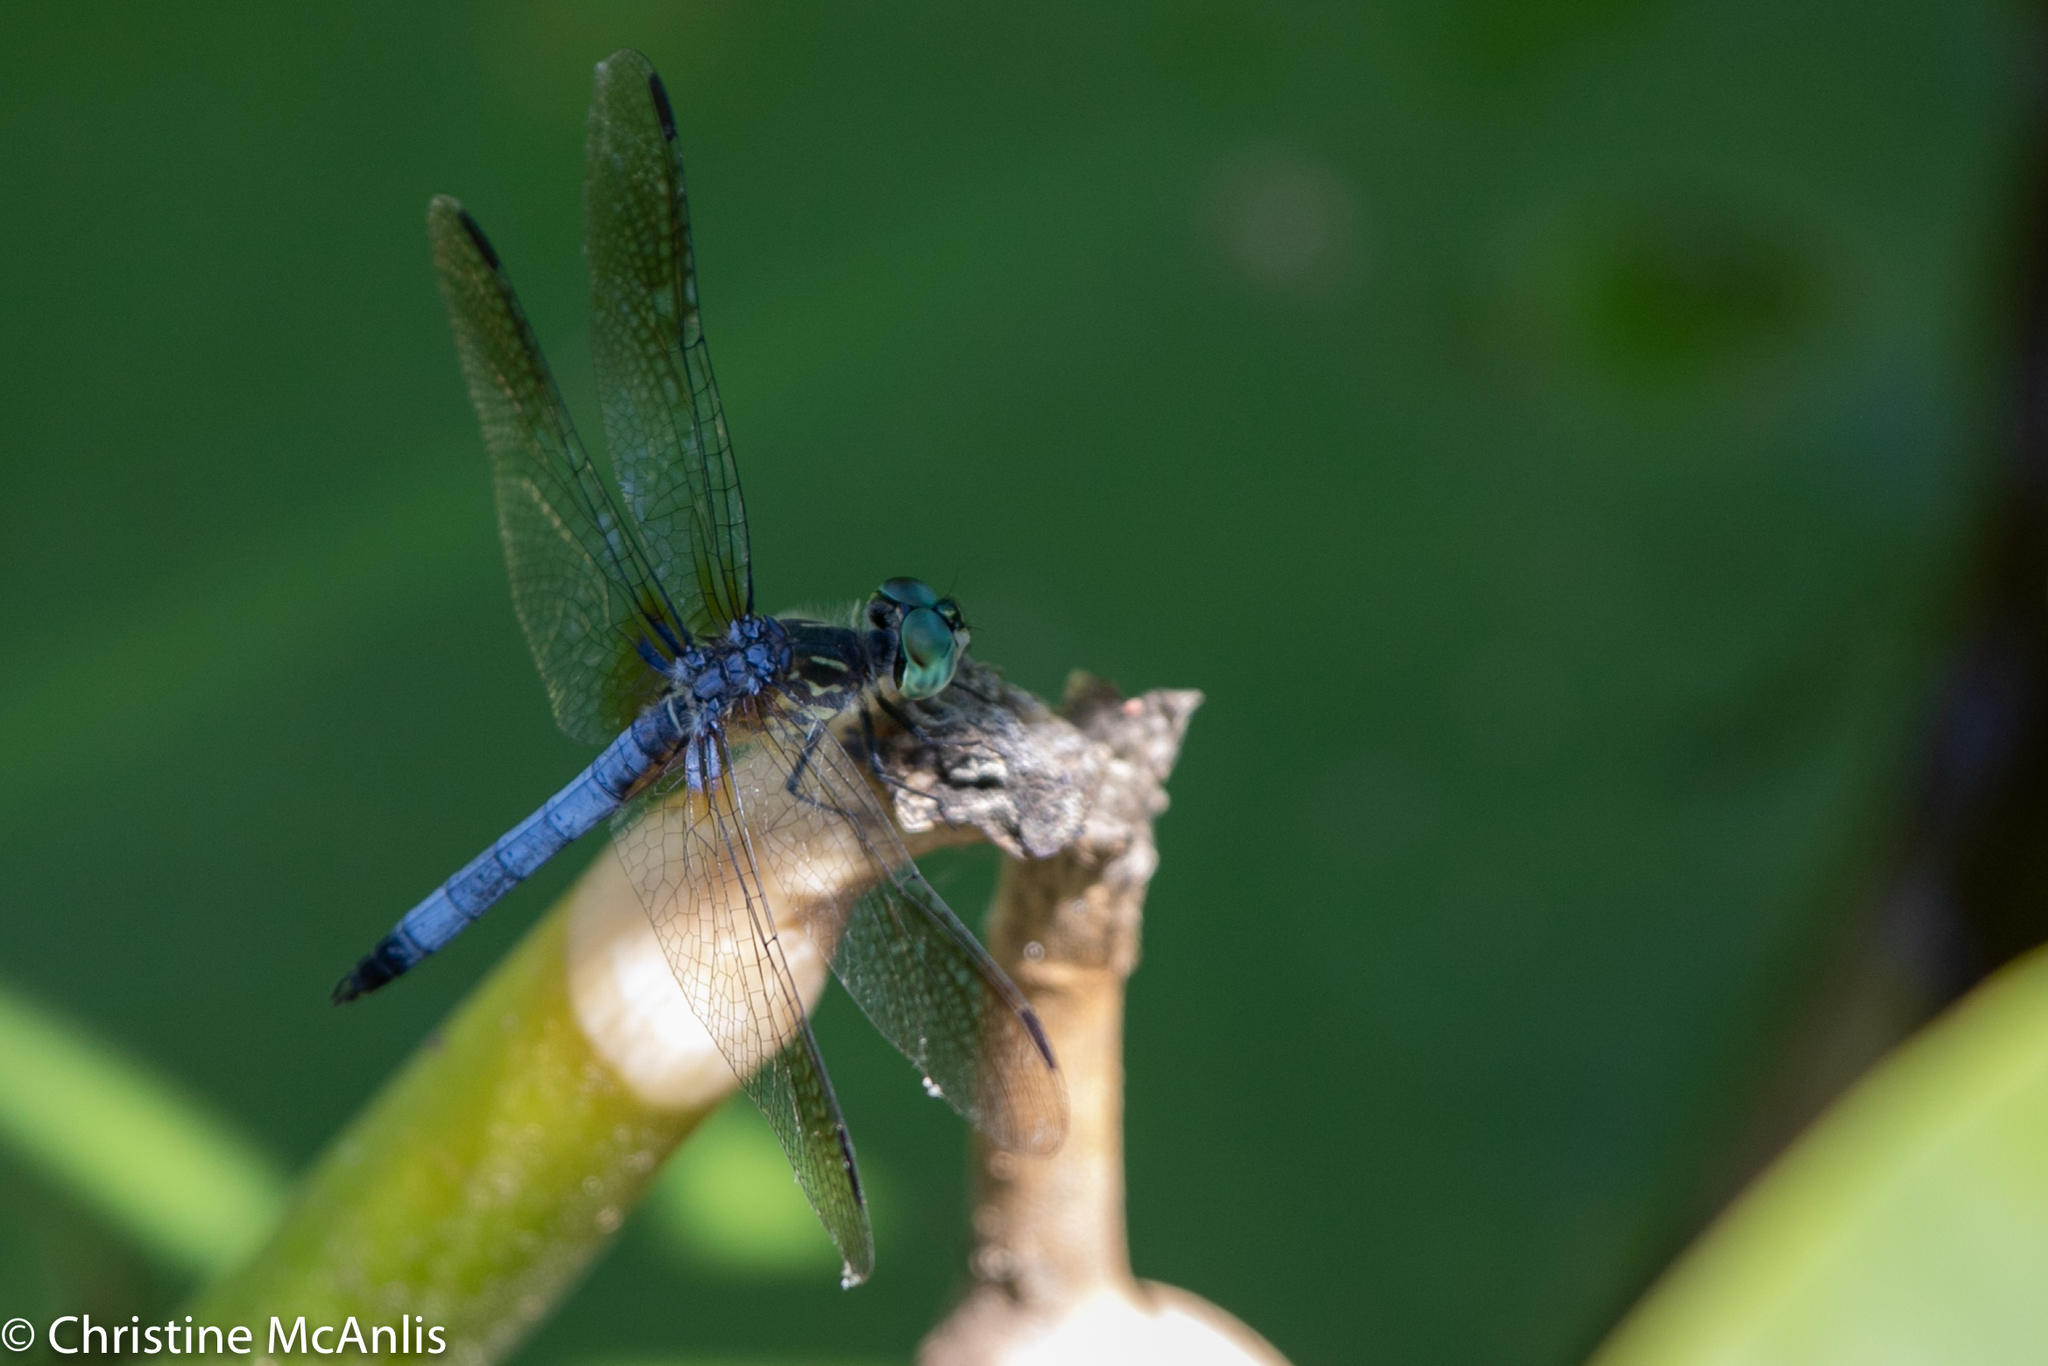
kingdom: Animalia
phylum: Arthropoda
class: Insecta
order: Odonata
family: Libellulidae
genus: Pachydiplax
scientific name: Pachydiplax longipennis
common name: Blue dasher
